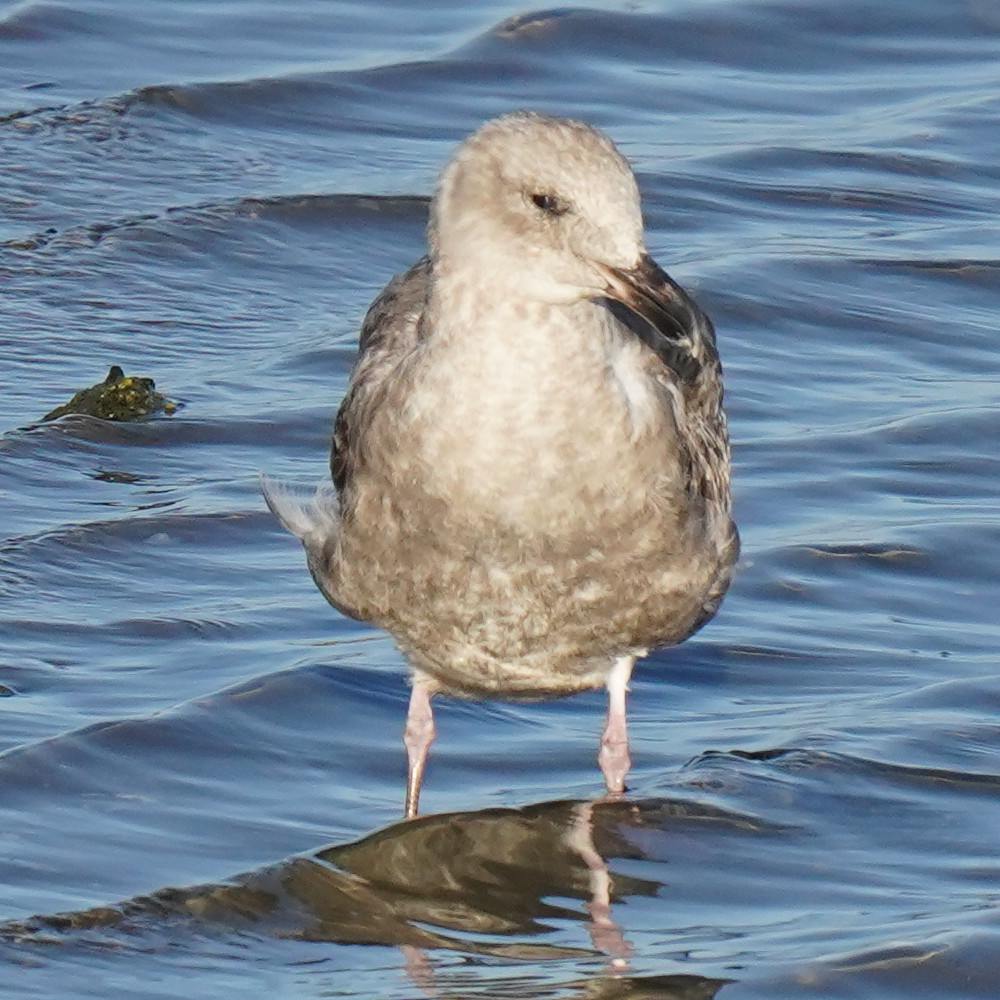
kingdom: Animalia
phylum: Chordata
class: Aves
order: Charadriiformes
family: Laridae
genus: Larus
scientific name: Larus occidentalis
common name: Western gull
